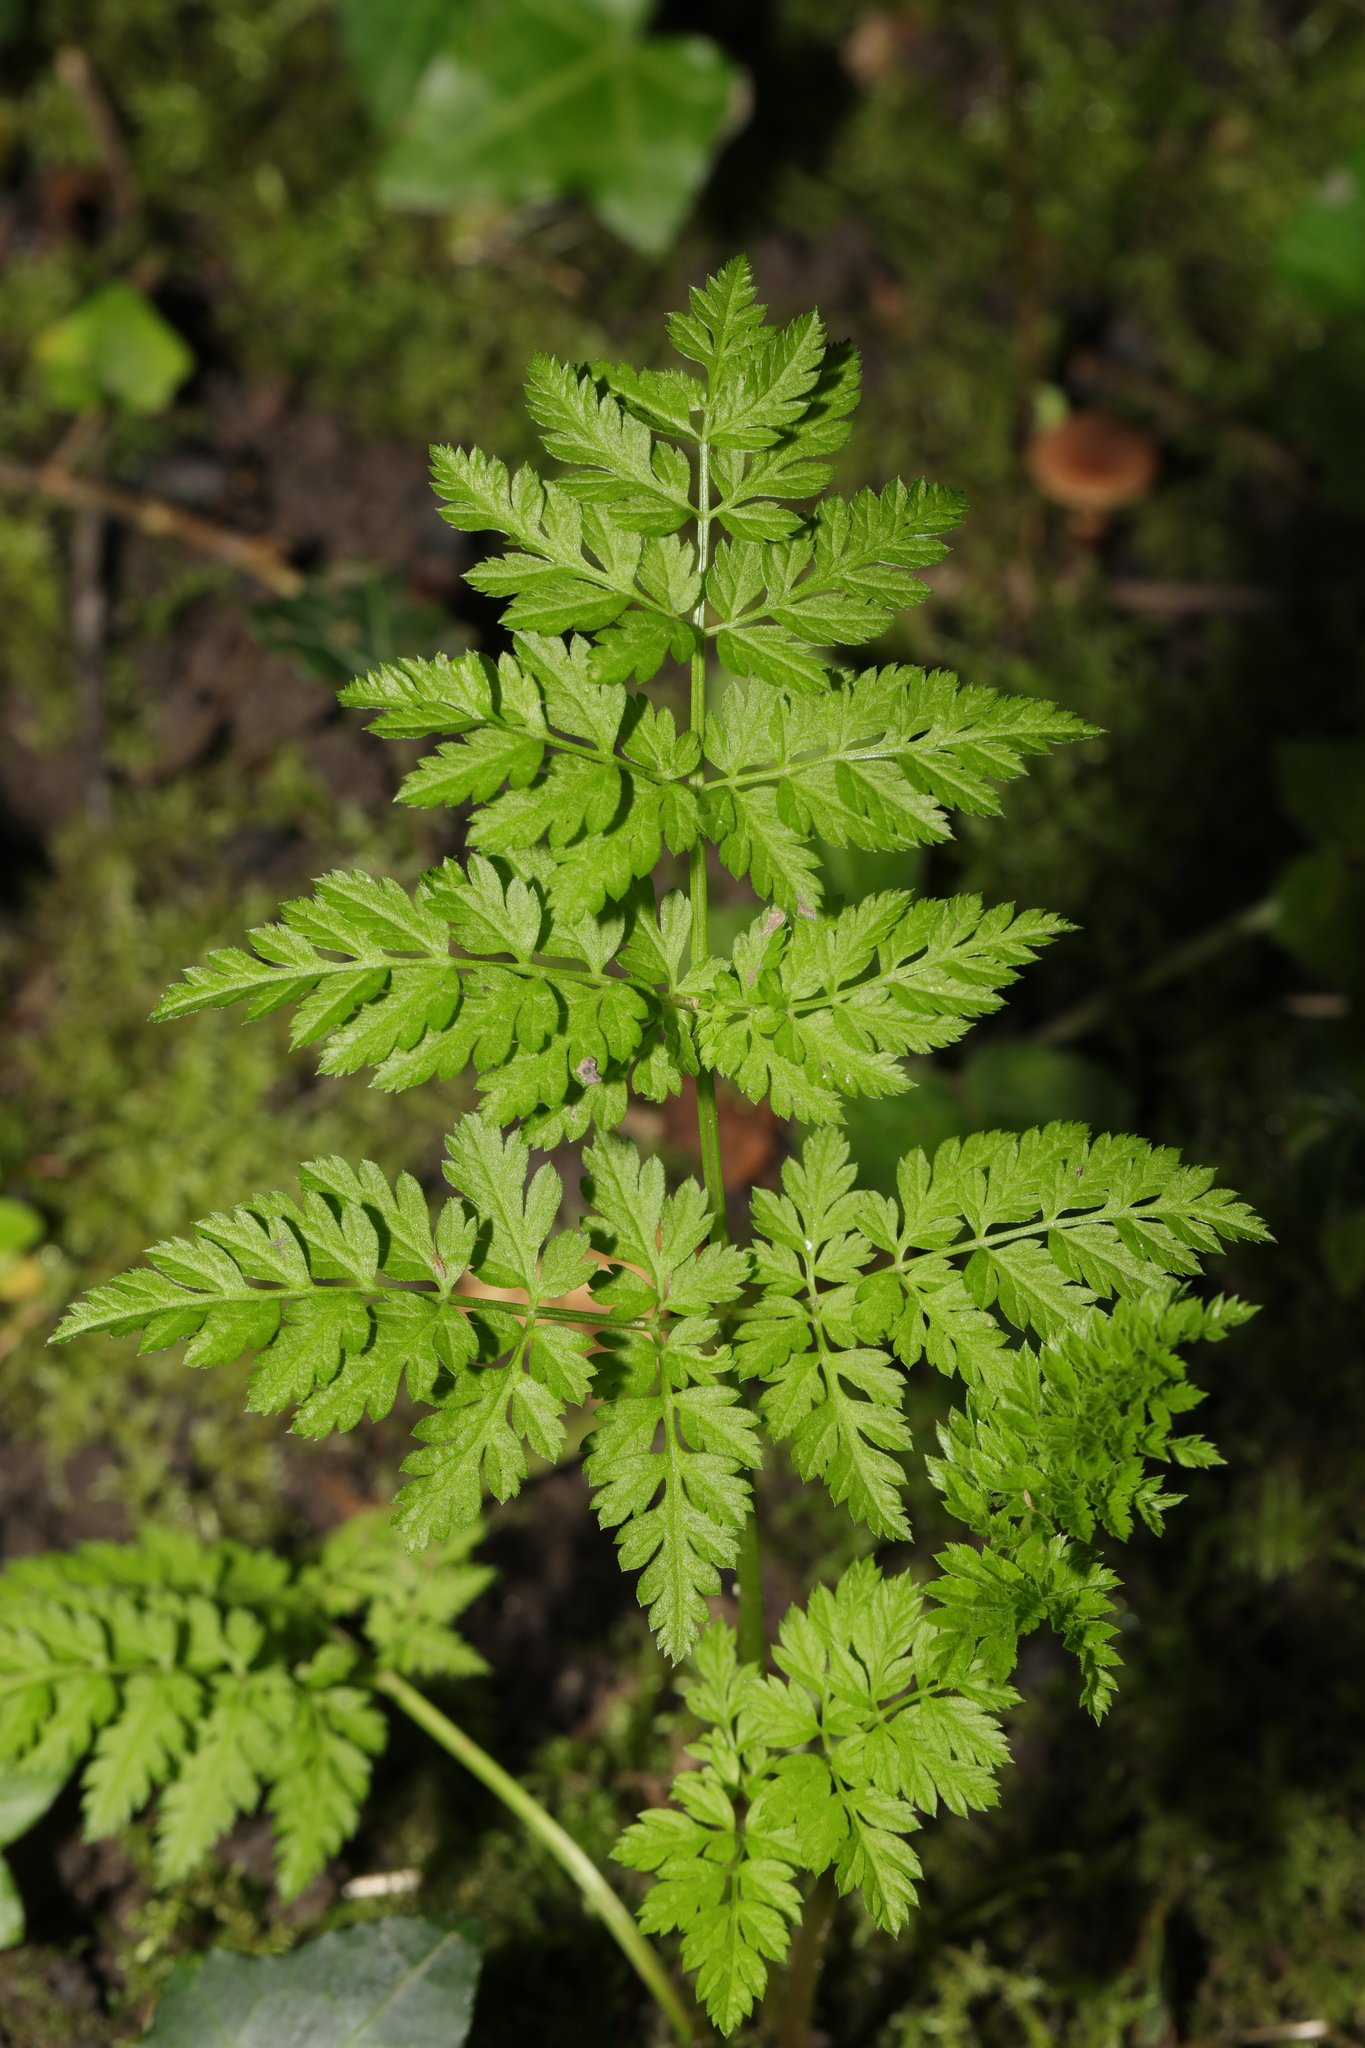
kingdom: Plantae
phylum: Tracheophyta
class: Magnoliopsida
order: Apiales
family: Apiaceae
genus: Anthriscus
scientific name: Anthriscus sylvestris
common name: Cow parsley
